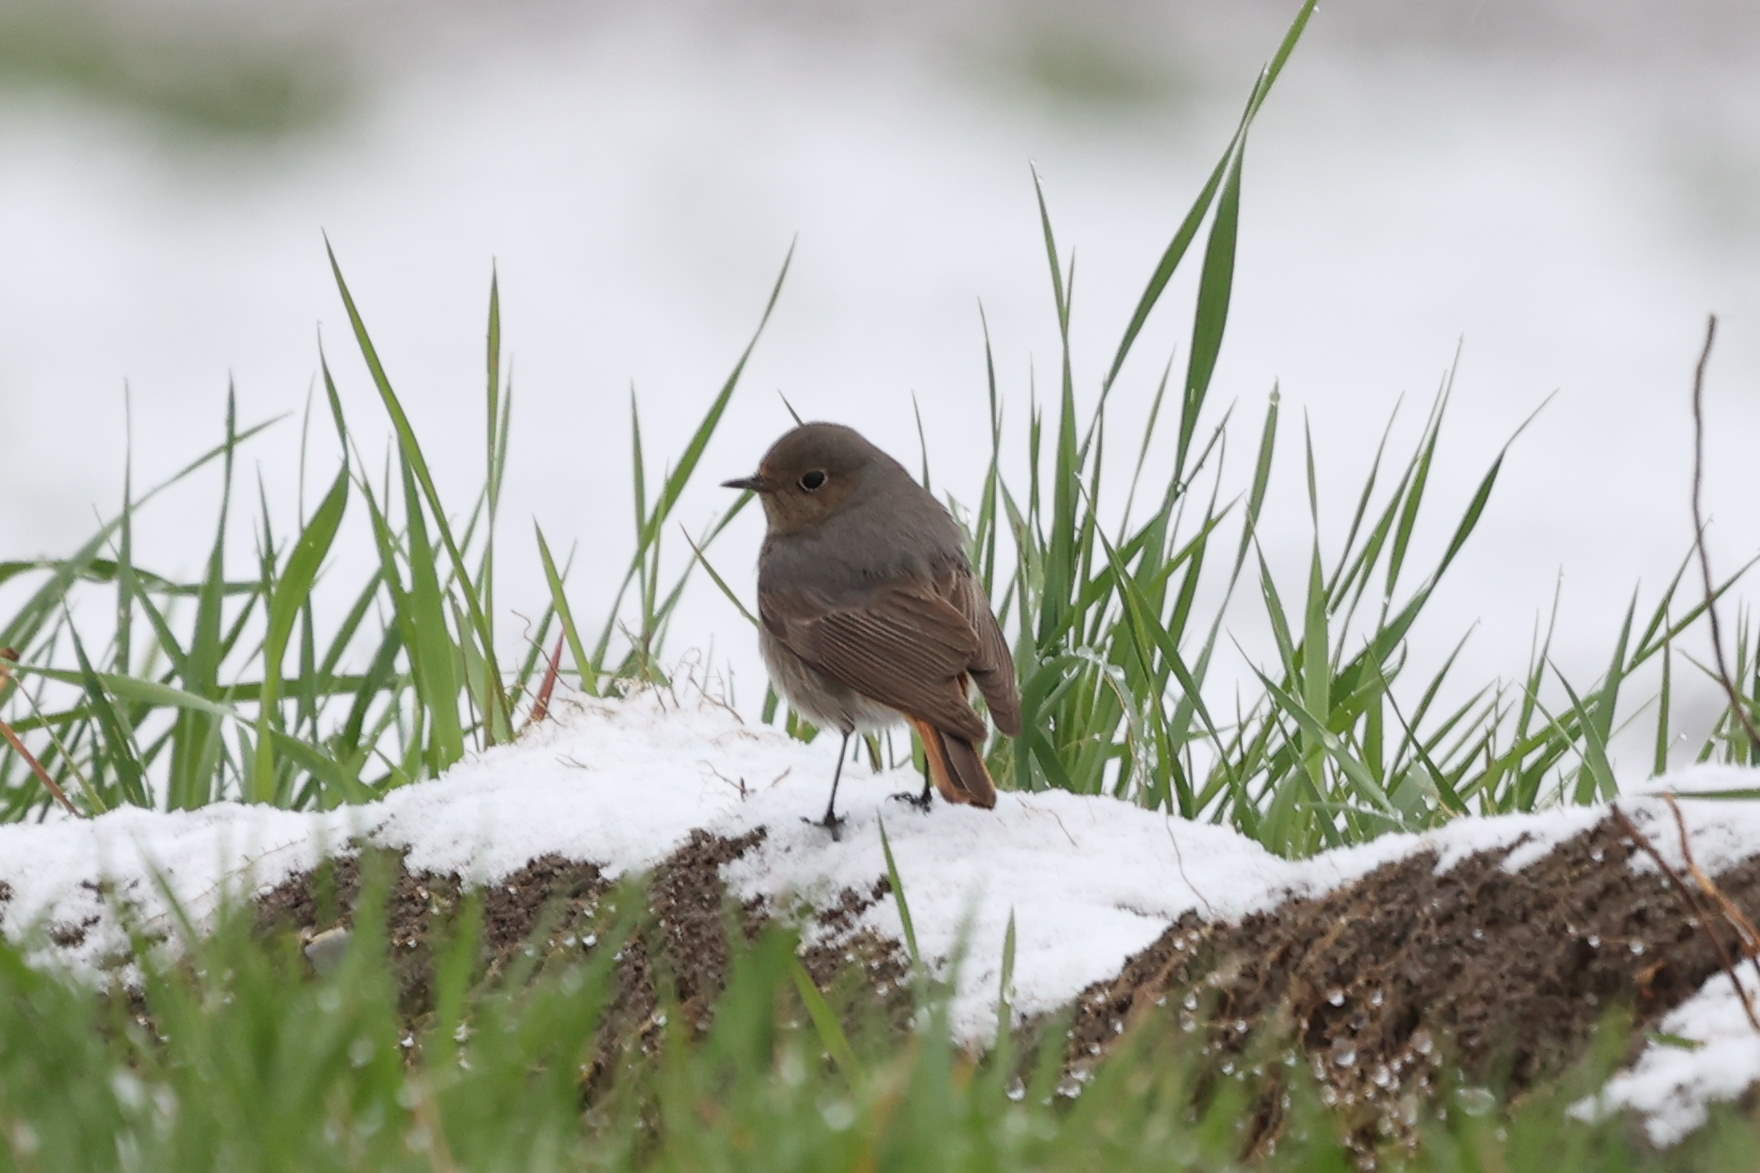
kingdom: Animalia
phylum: Chordata
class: Aves
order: Passeriformes
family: Muscicapidae
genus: Phoenicurus
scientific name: Phoenicurus ochruros
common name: Black redstart
